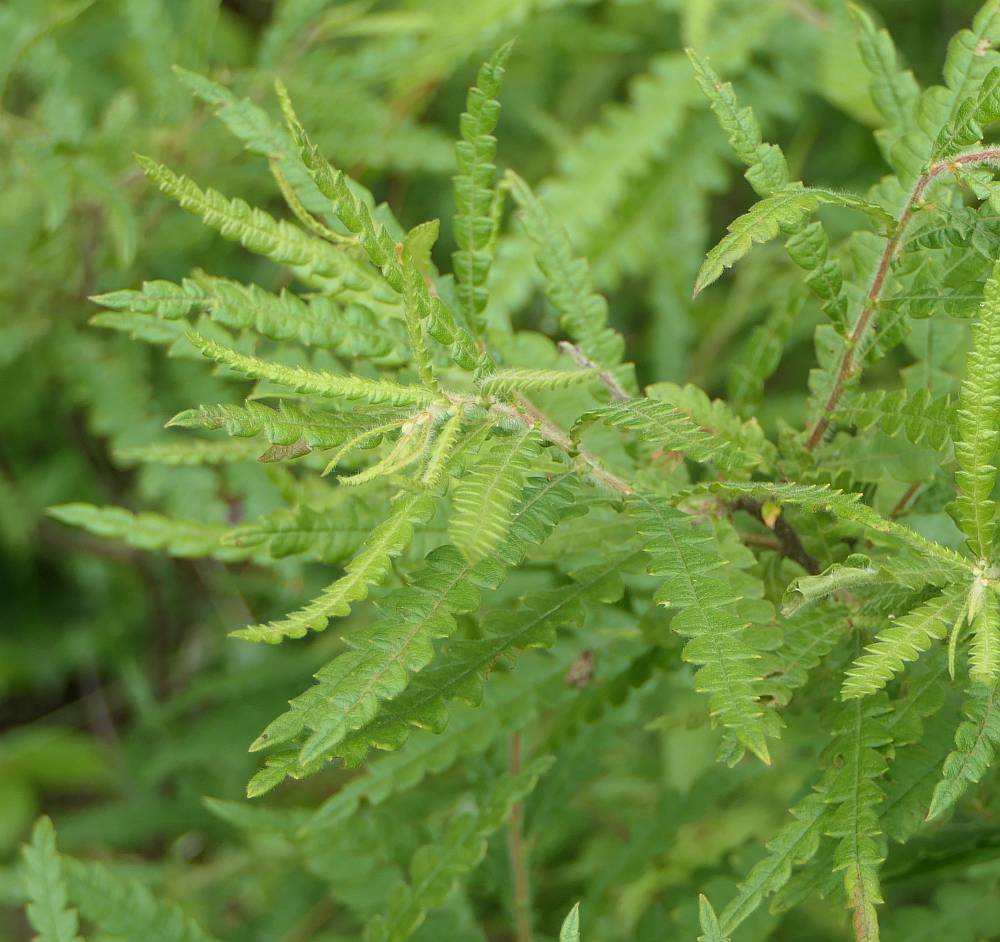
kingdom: Plantae
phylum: Tracheophyta
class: Magnoliopsida
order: Fagales
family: Myricaceae
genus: Comptonia
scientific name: Comptonia peregrina
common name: Sweet-fern
